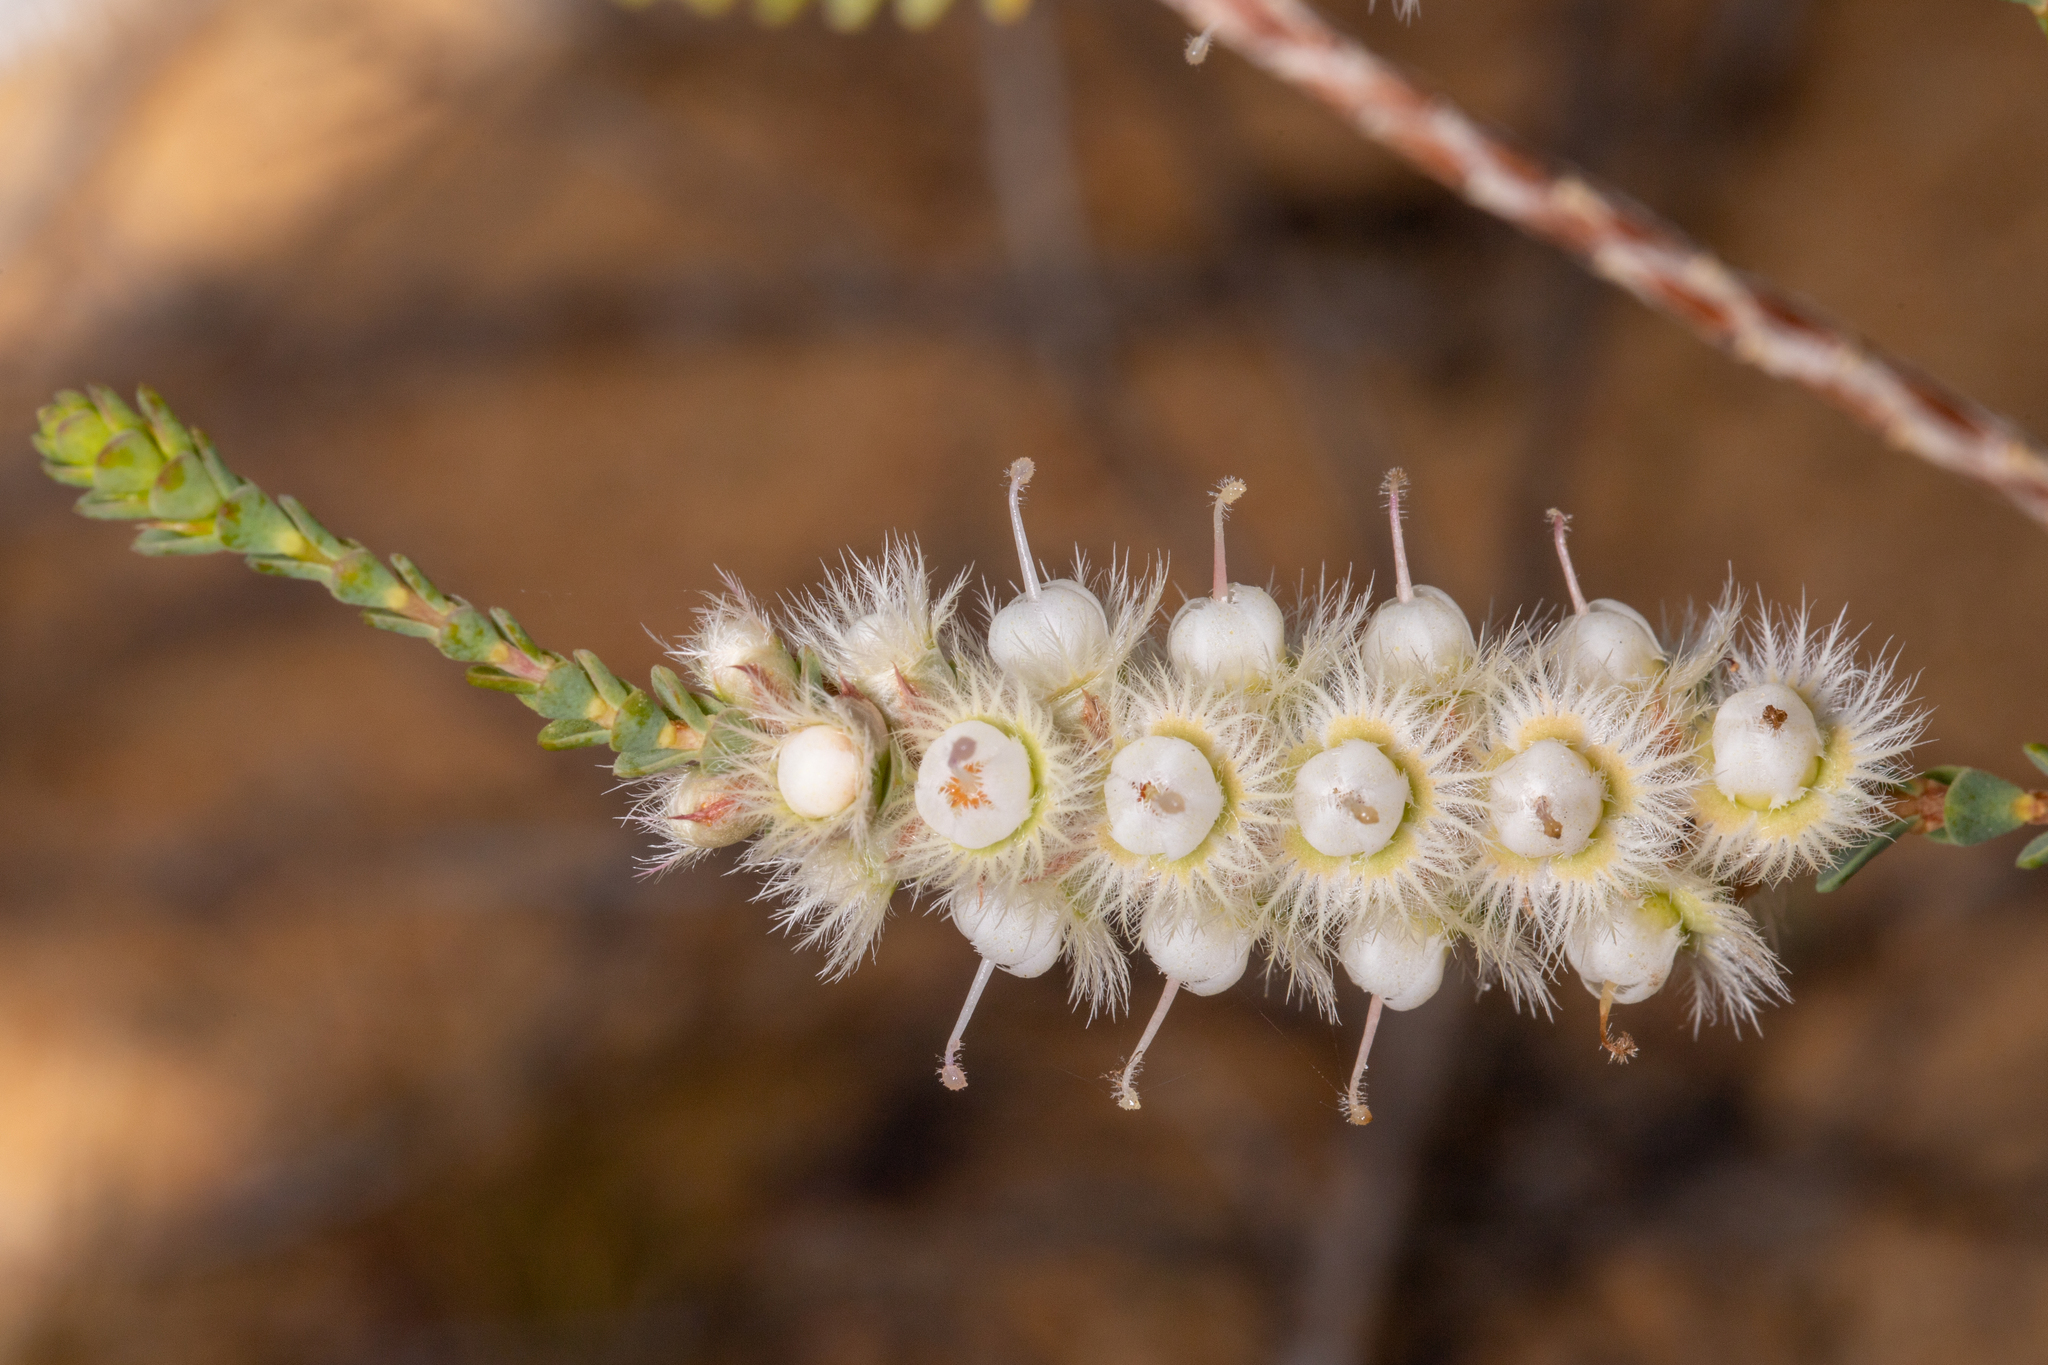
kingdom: Plantae
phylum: Tracheophyta
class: Magnoliopsida
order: Myrtales
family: Myrtaceae
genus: Verticordia
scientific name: Verticordia spicata
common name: Spike feather-flower
